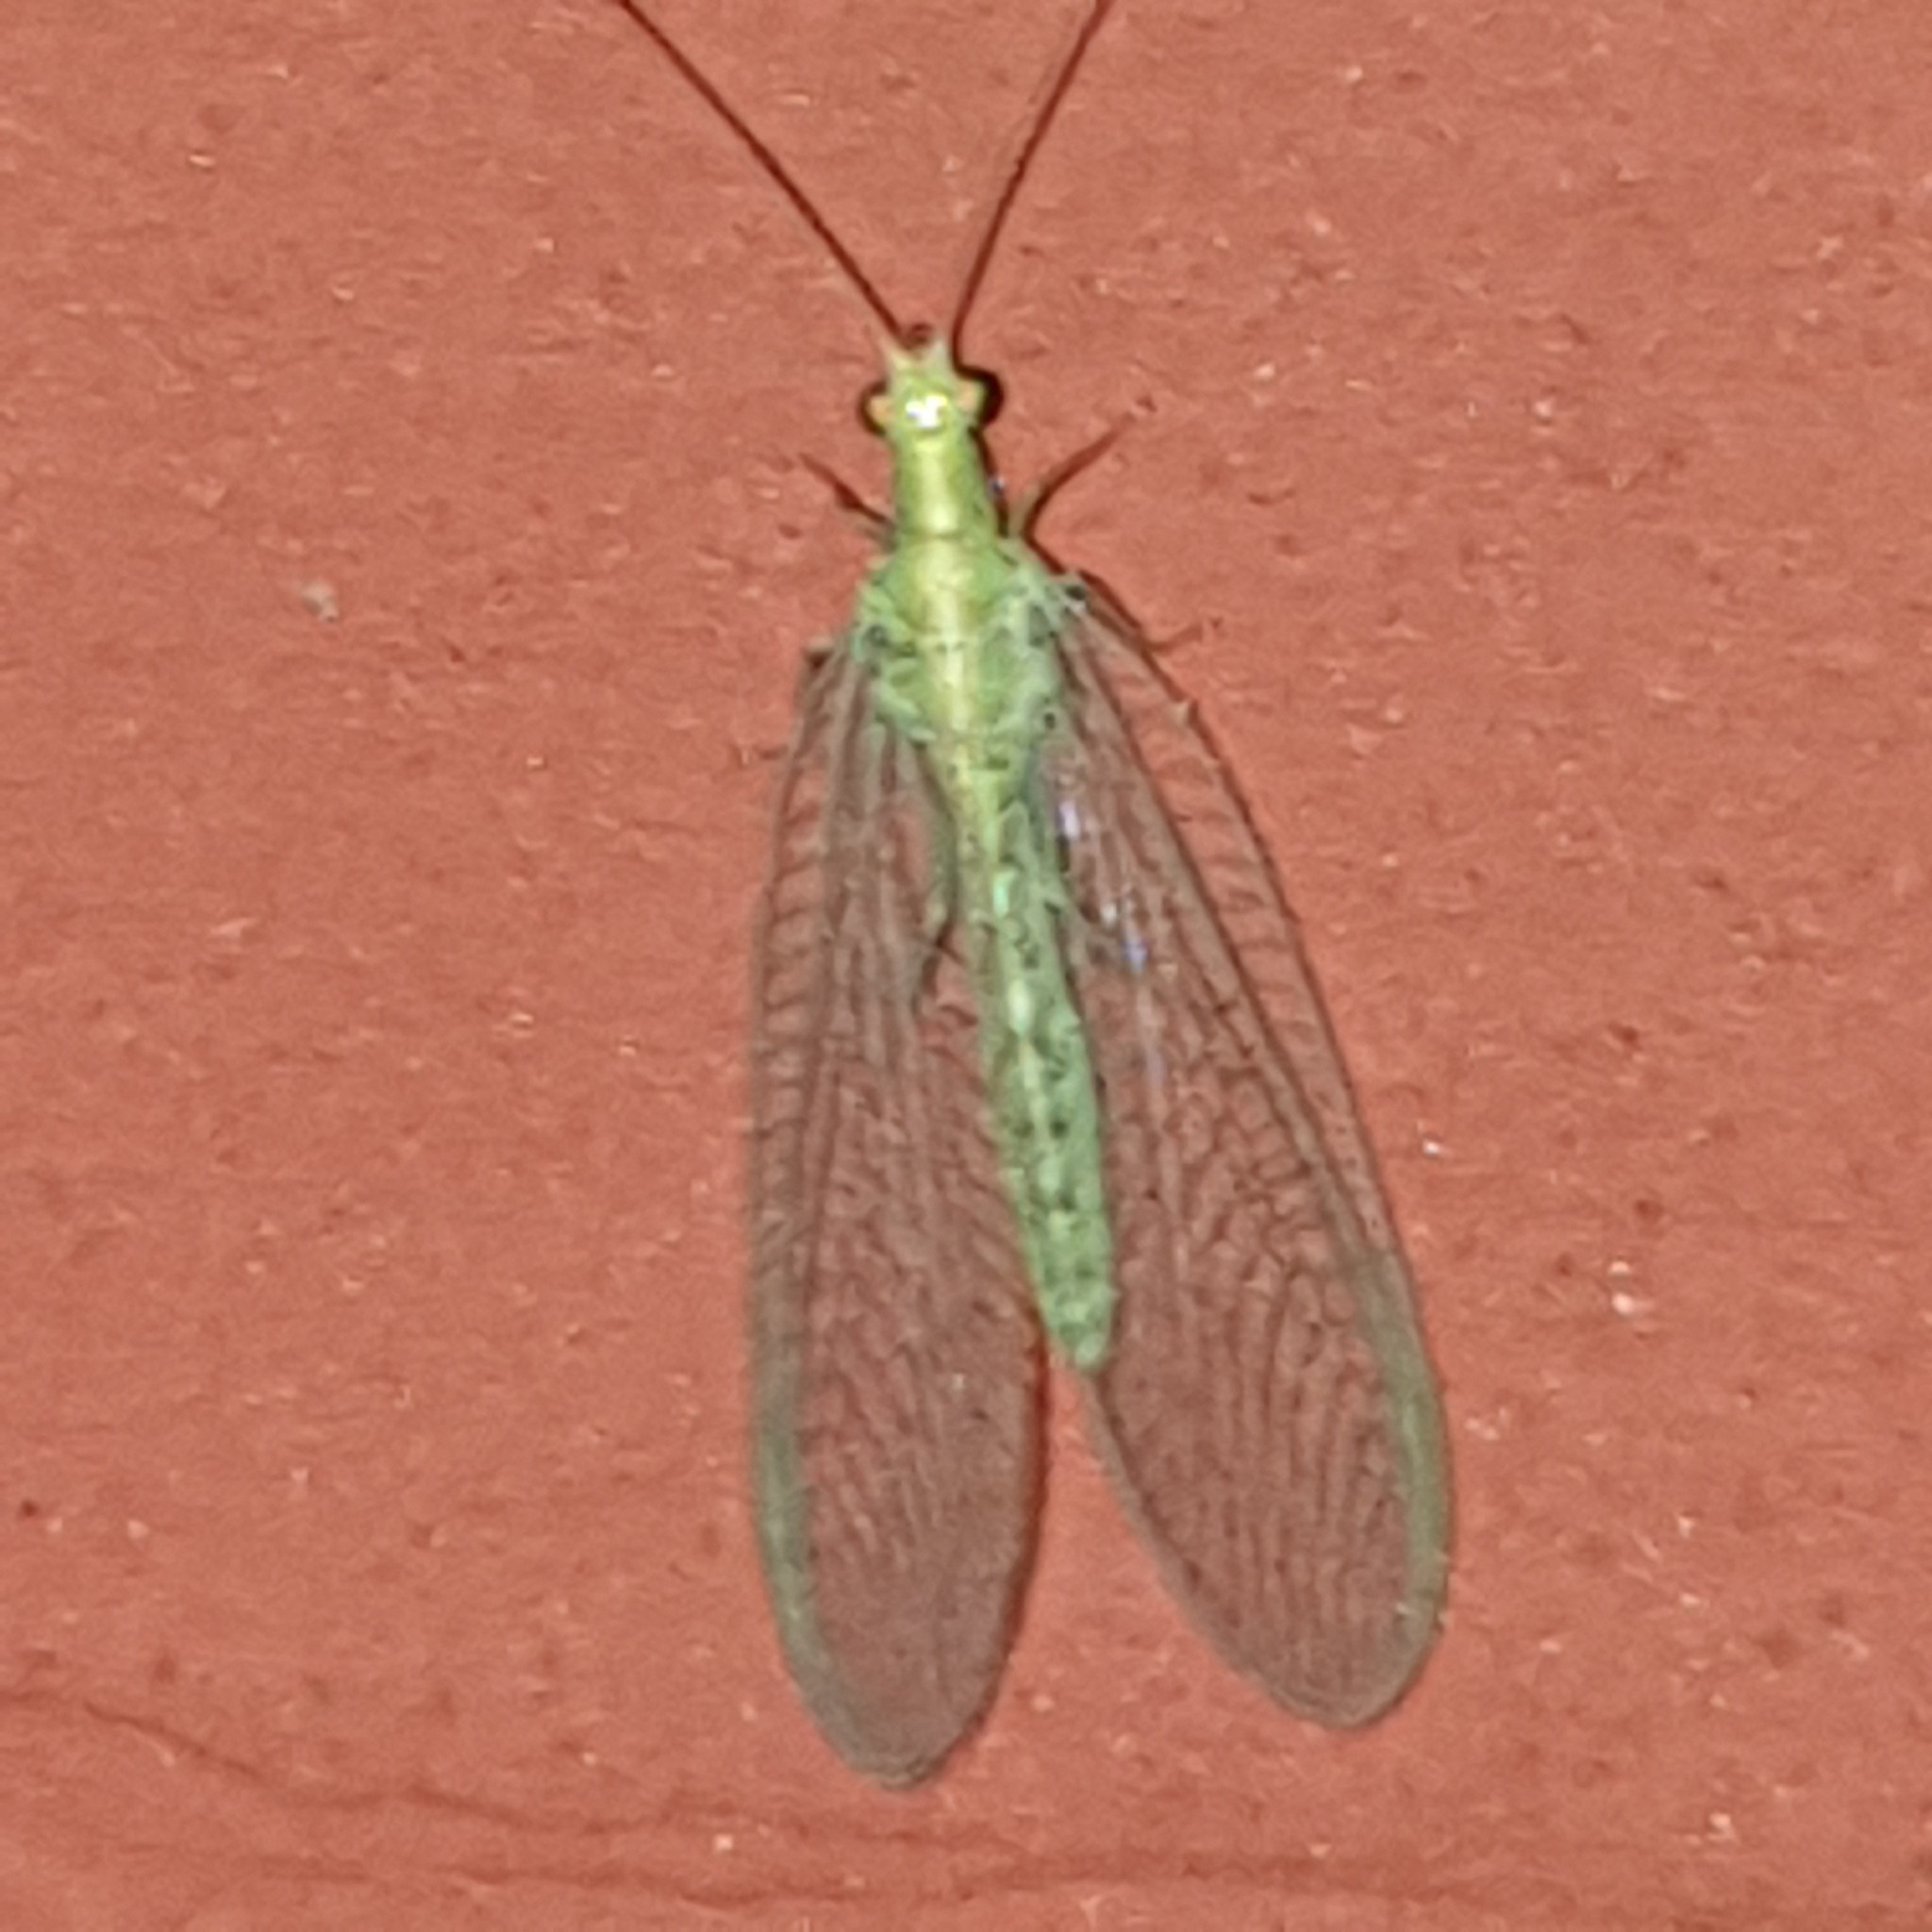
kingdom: Animalia
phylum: Arthropoda
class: Insecta
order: Neuroptera
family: Chrysopidae
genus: Chrysoperla
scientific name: Chrysoperla
